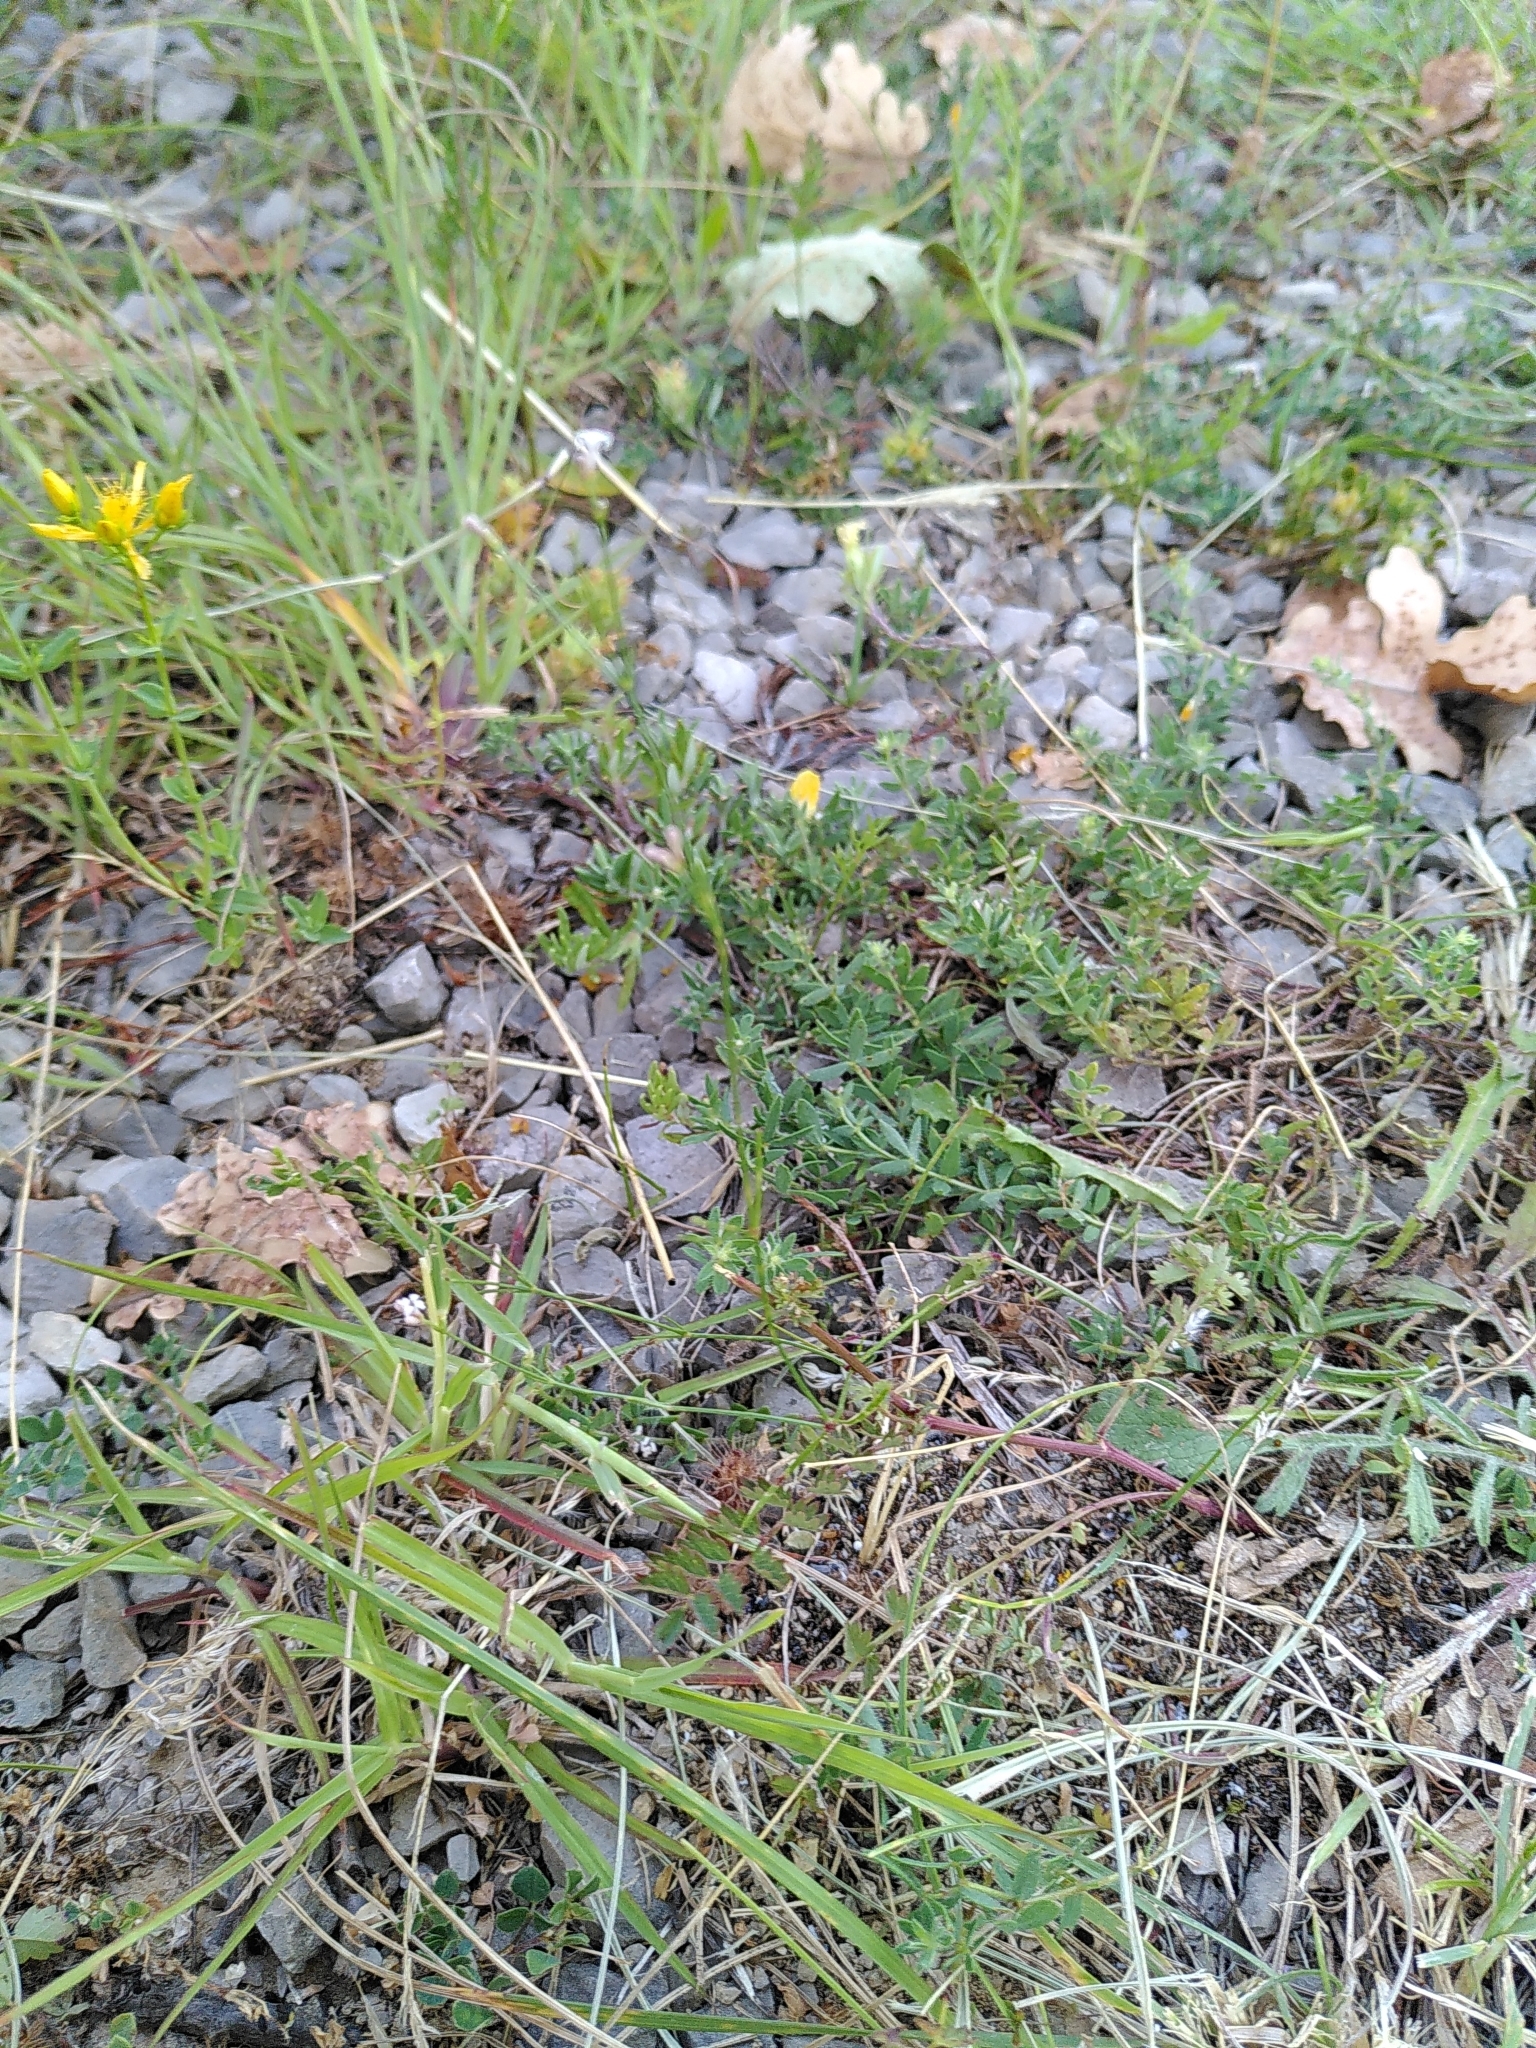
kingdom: Plantae
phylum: Tracheophyta
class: Magnoliopsida
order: Gentianales
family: Rubiaceae
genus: Cynanchica
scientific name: Cynanchica pyrenaica
